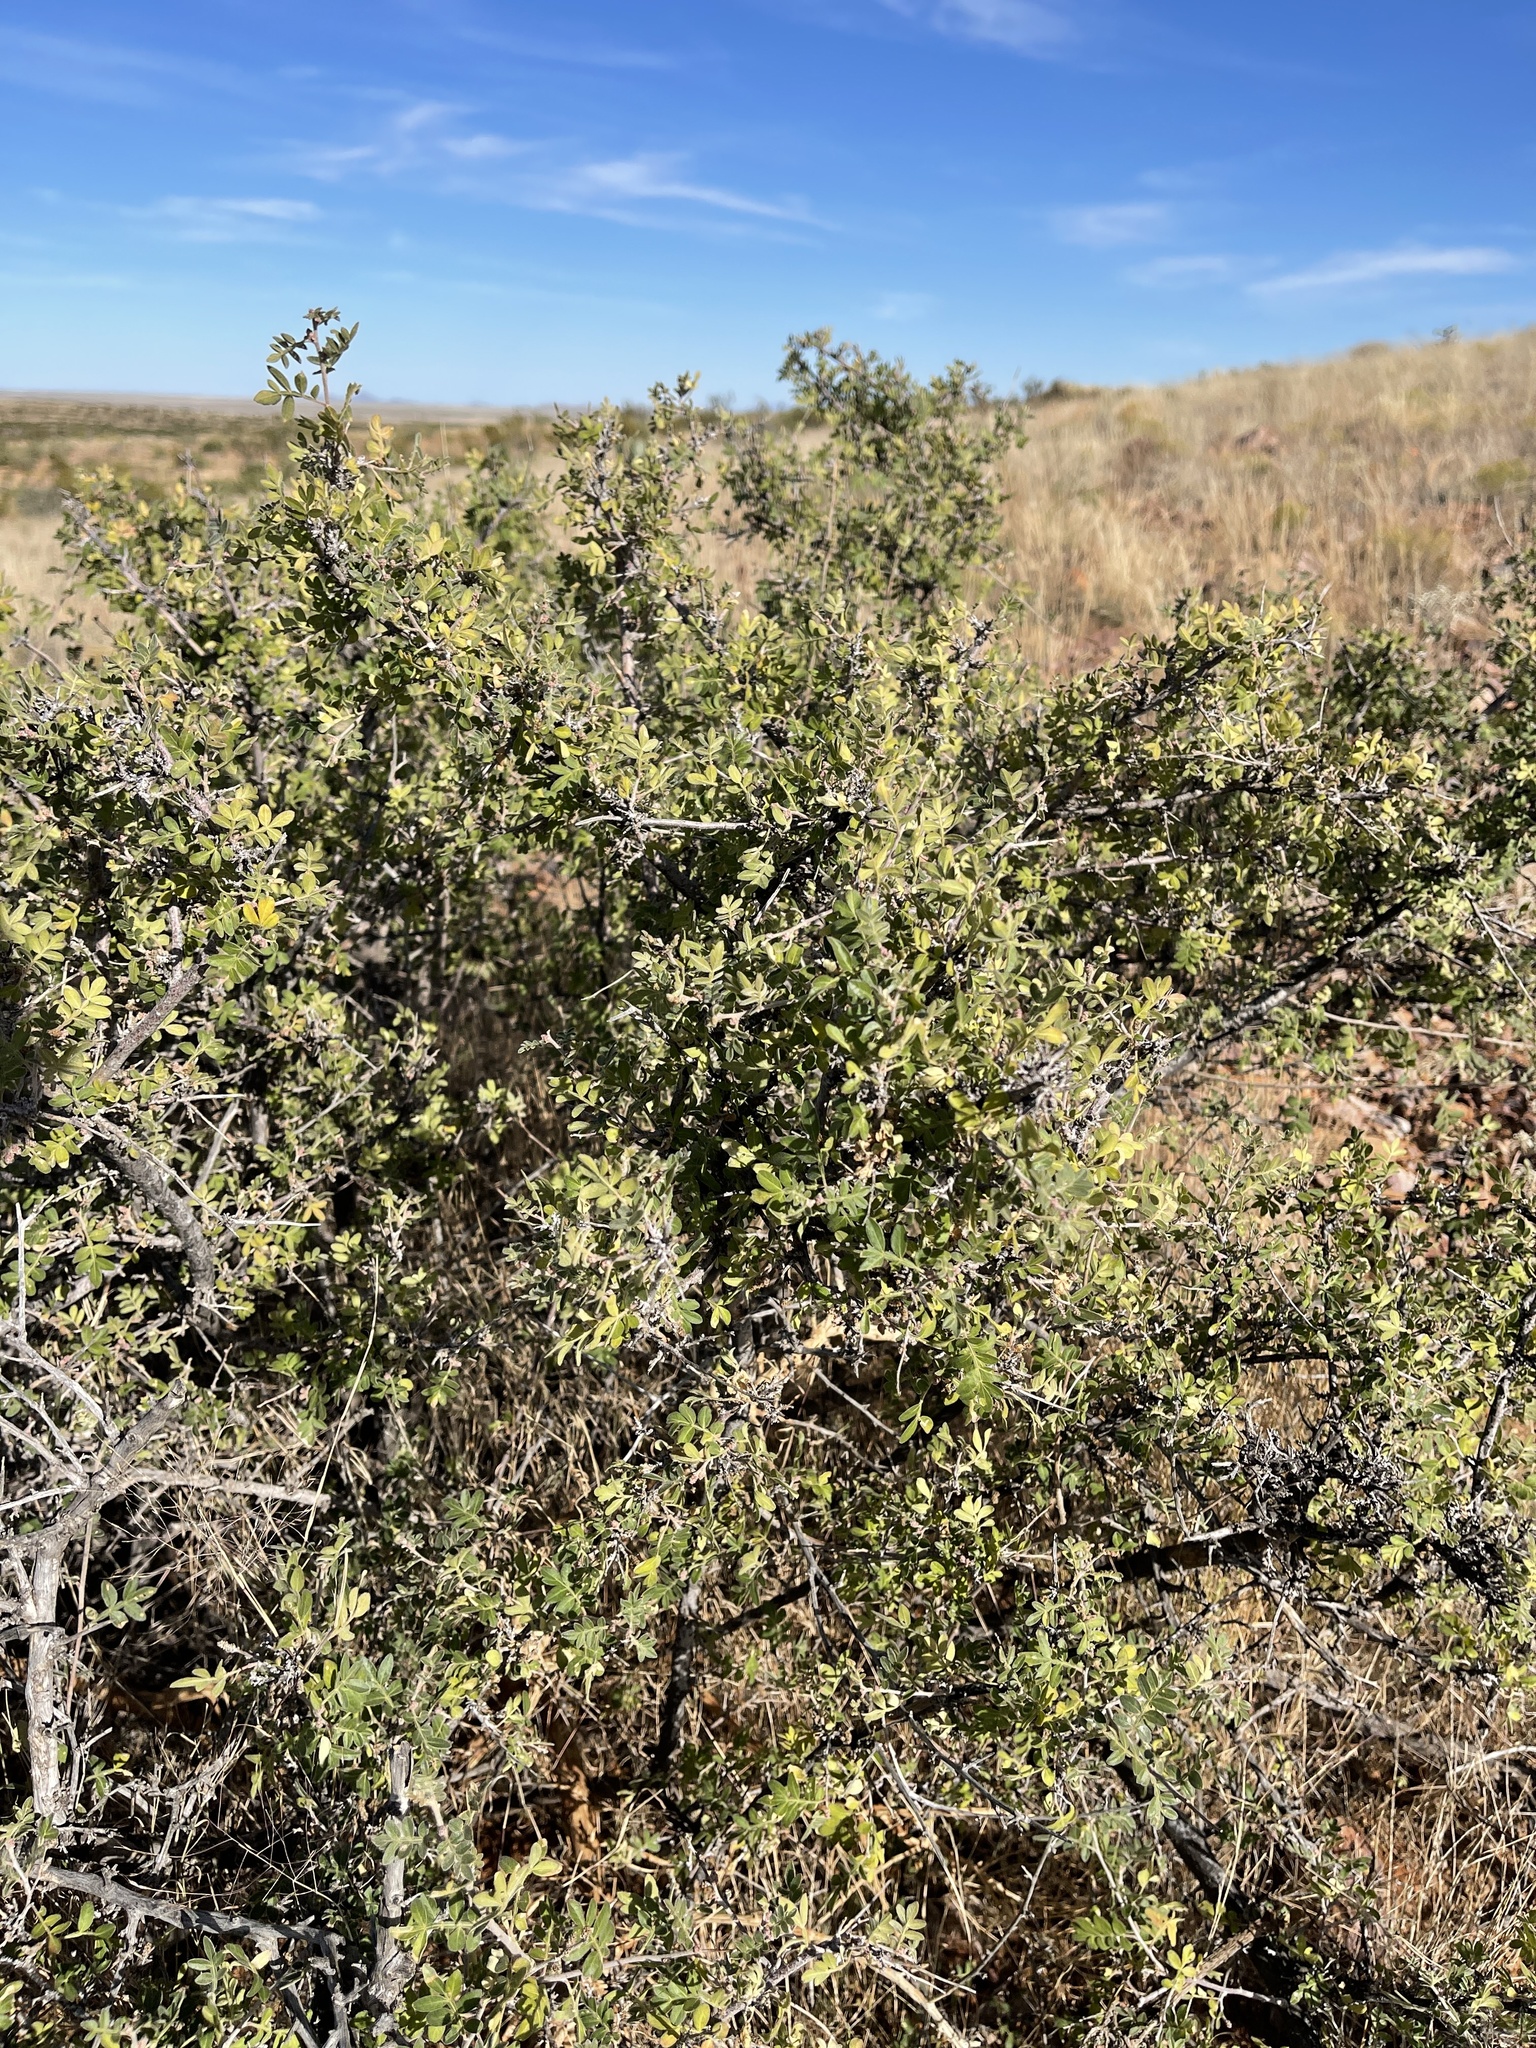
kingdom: Plantae
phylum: Tracheophyta
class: Magnoliopsida
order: Sapindales
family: Anacardiaceae
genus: Rhus
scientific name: Rhus microphylla
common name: Desert sumac
